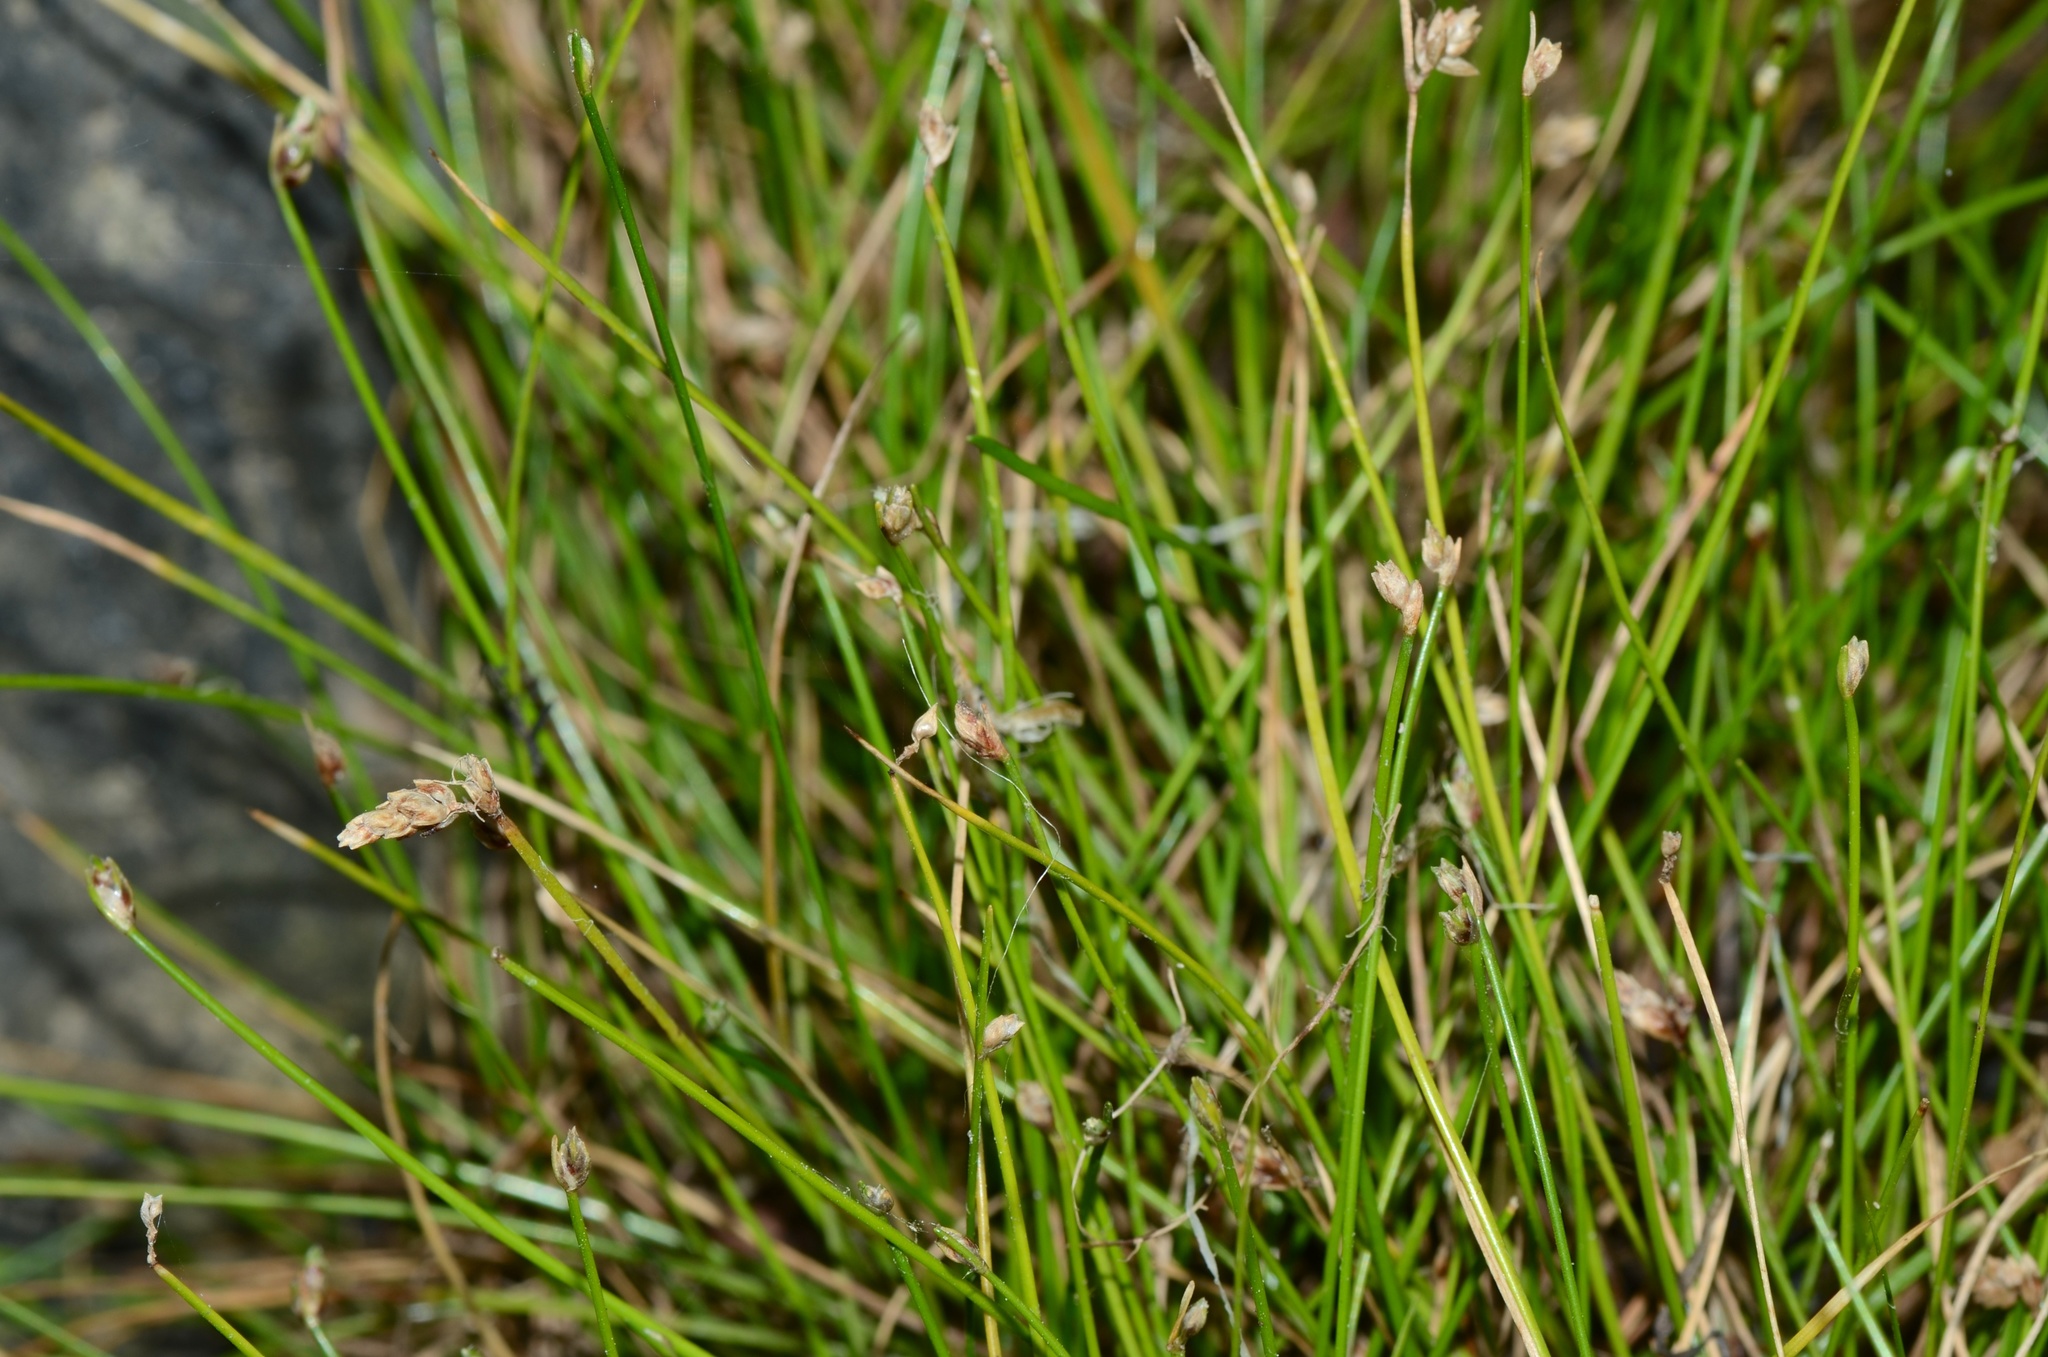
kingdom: Plantae
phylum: Tracheophyta
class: Liliopsida
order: Poales
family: Cyperaceae
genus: Isolepis
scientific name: Isolepis cernua
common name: Slender club-rush
